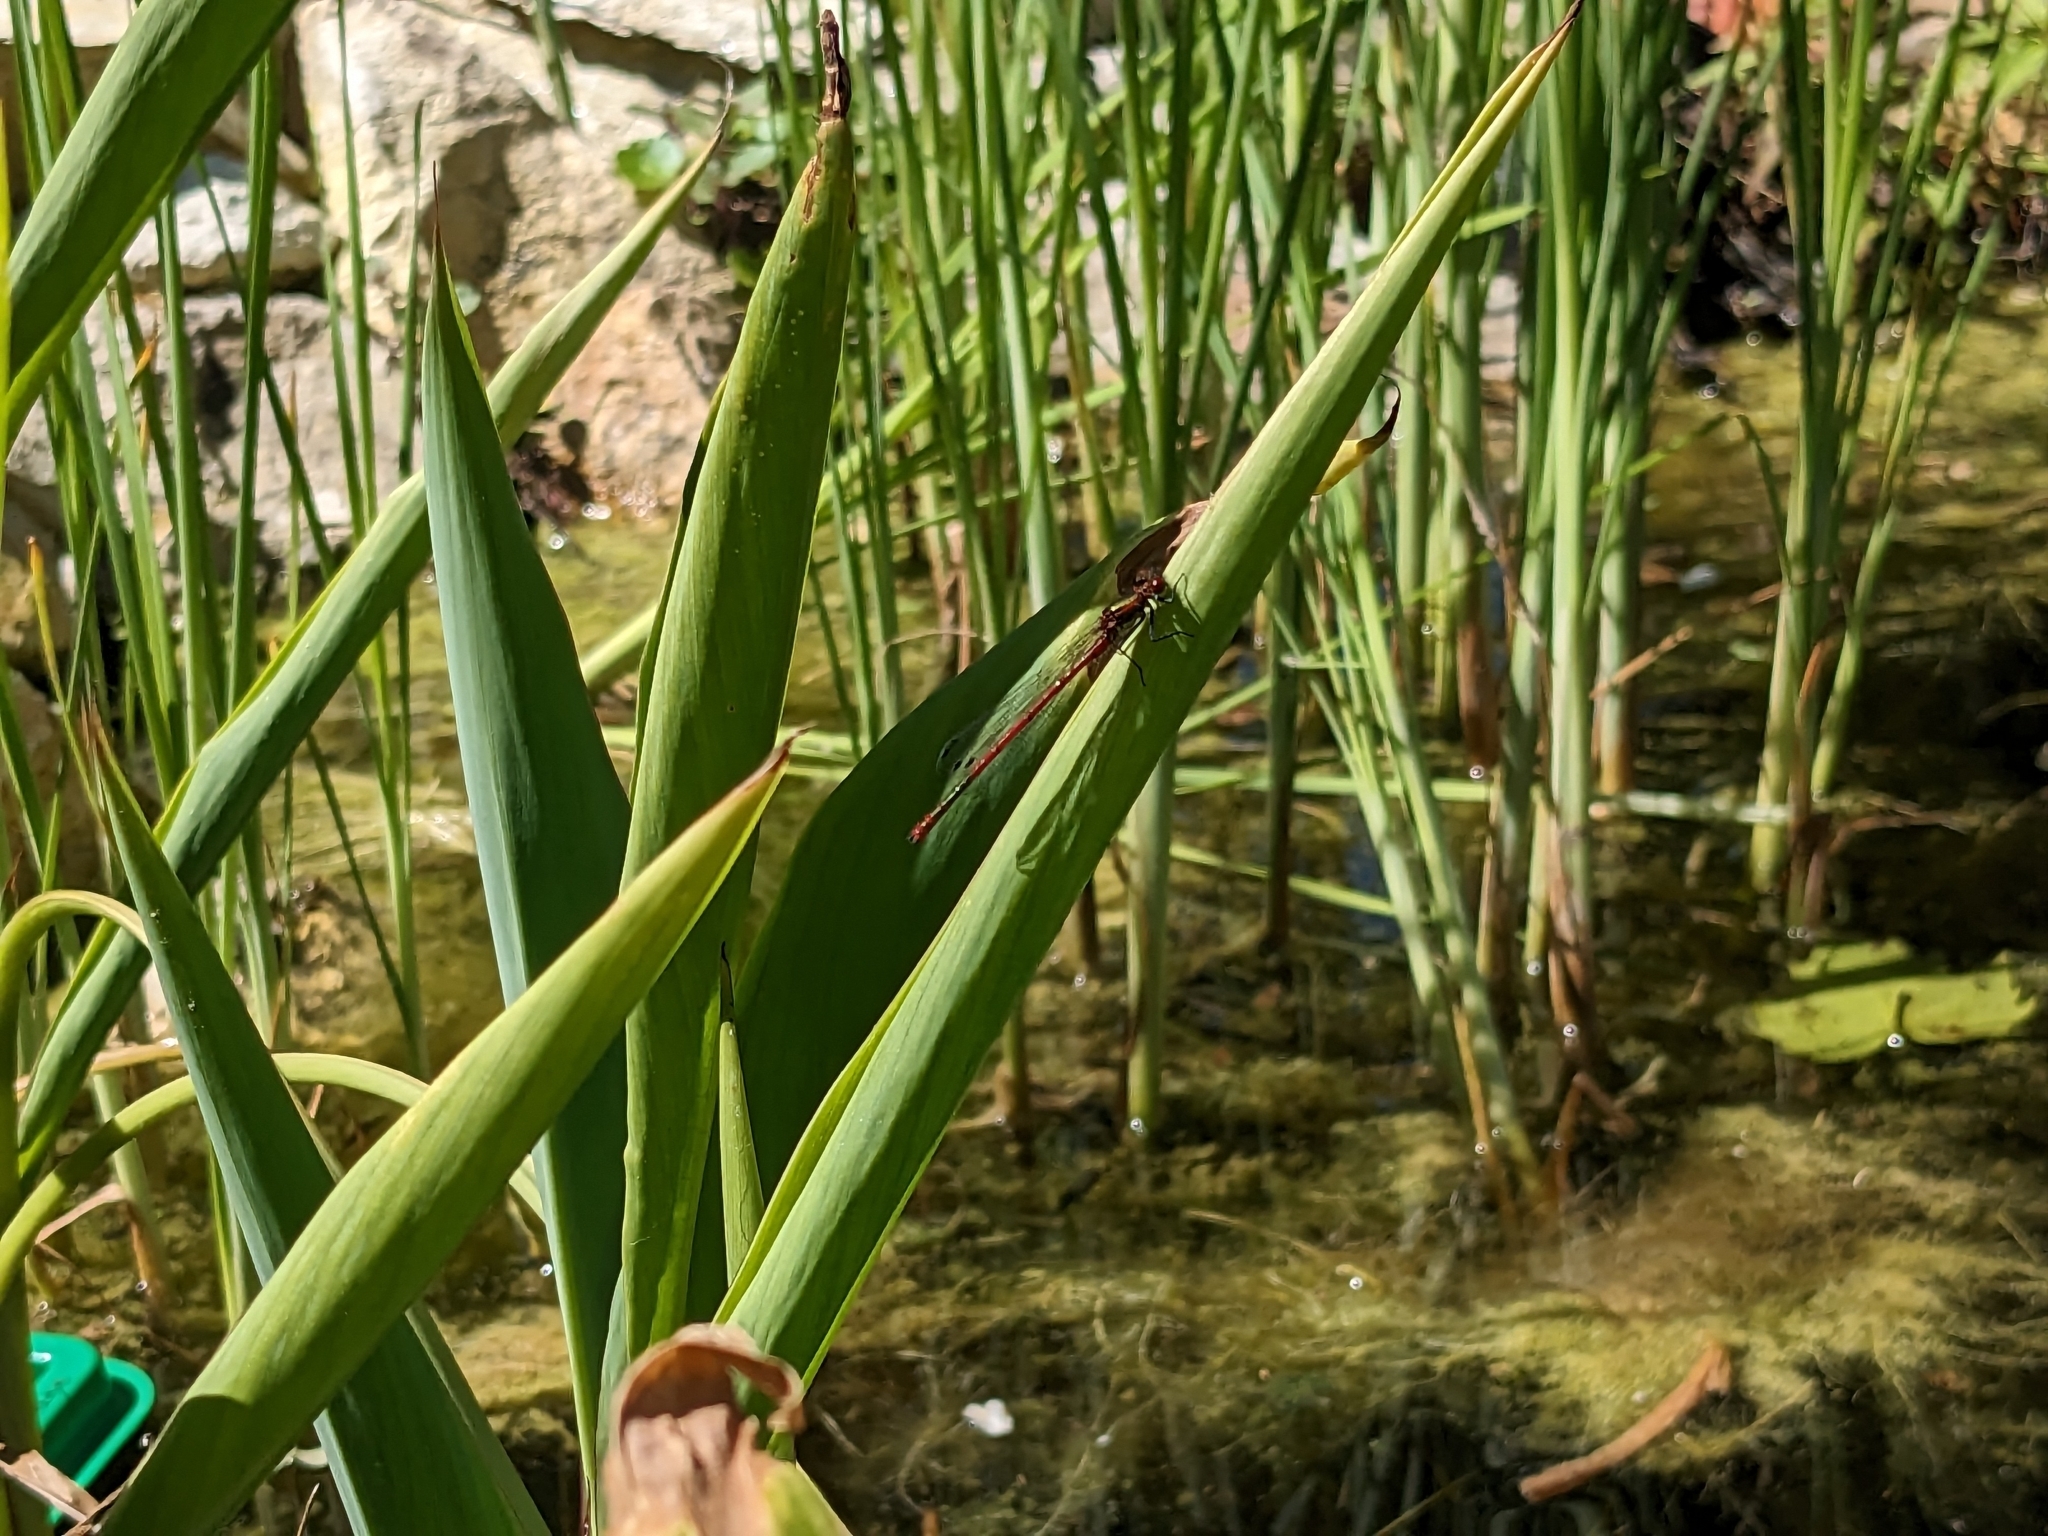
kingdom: Animalia
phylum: Arthropoda
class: Insecta
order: Odonata
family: Coenagrionidae
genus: Pyrrhosoma
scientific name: Pyrrhosoma nymphula
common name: Large red damsel
